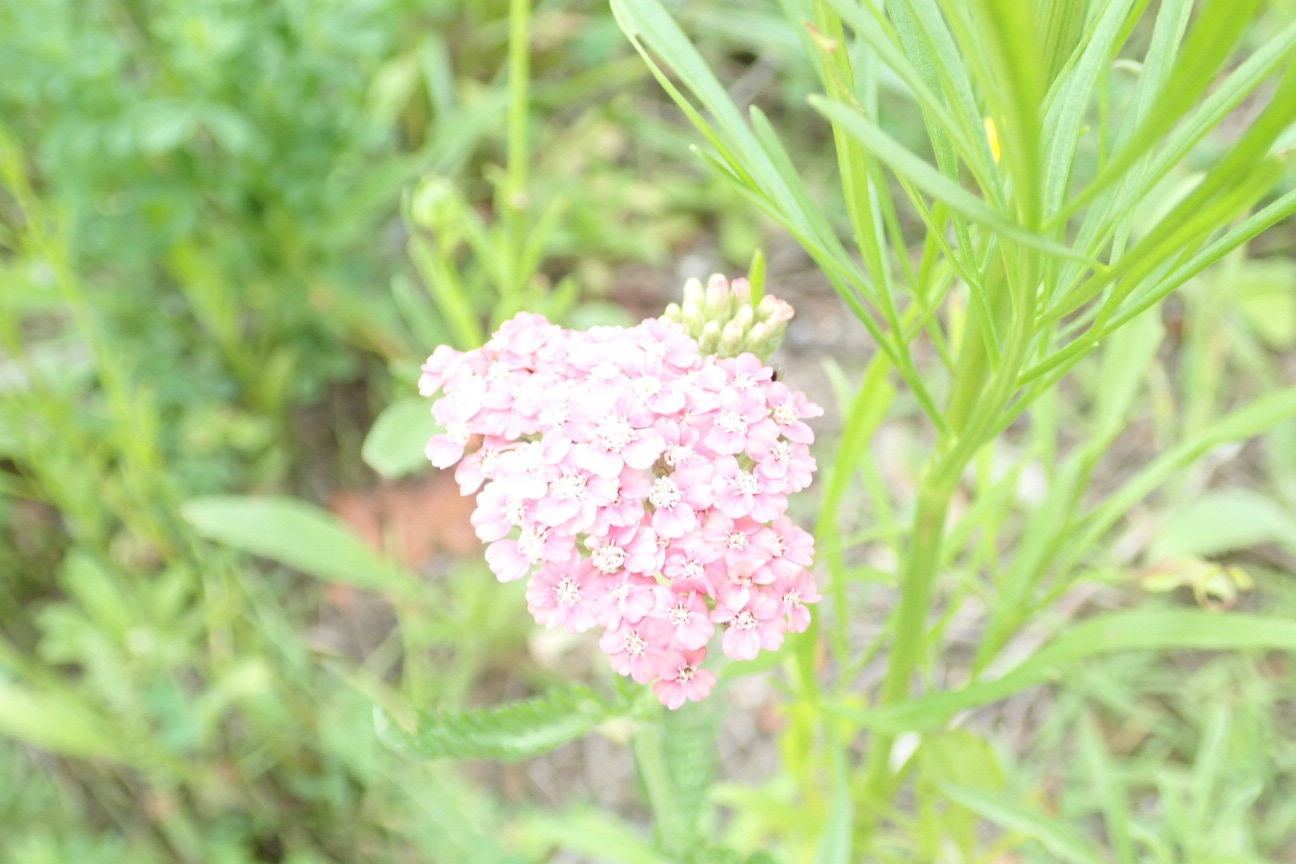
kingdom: Plantae
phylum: Tracheophyta
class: Magnoliopsida
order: Asterales
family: Asteraceae
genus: Achillea
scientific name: Achillea millefolium
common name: Yarrow
